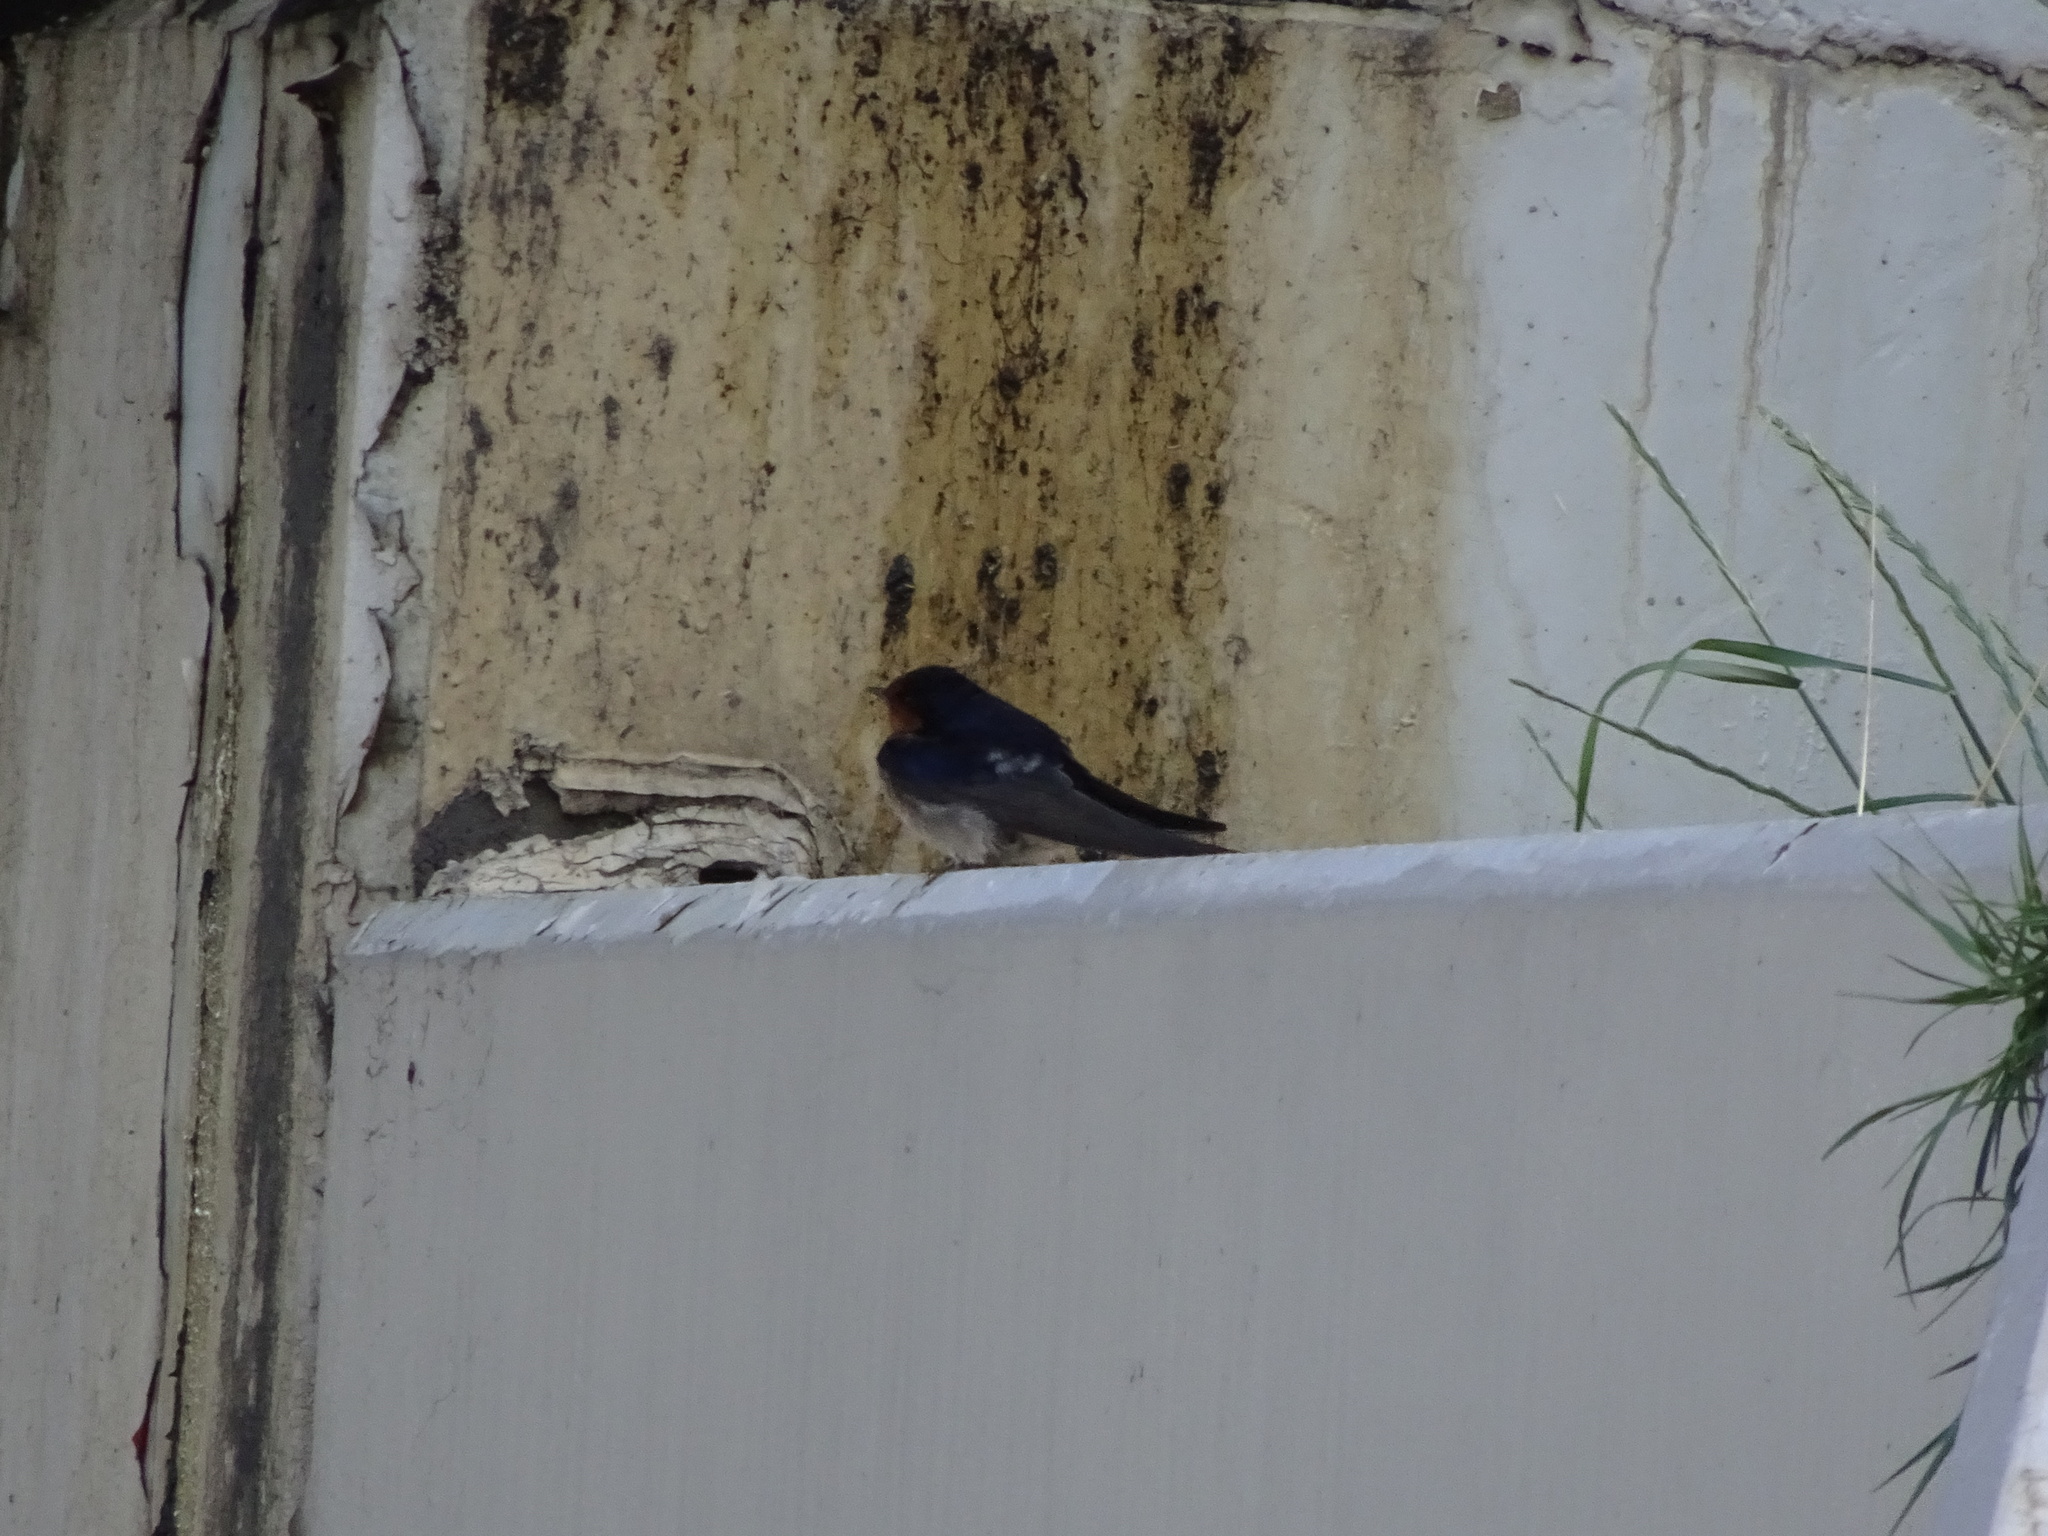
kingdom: Animalia
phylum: Chordata
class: Aves
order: Passeriformes
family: Hirundinidae
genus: Hirundo
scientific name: Hirundo neoxena
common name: Welcome swallow
